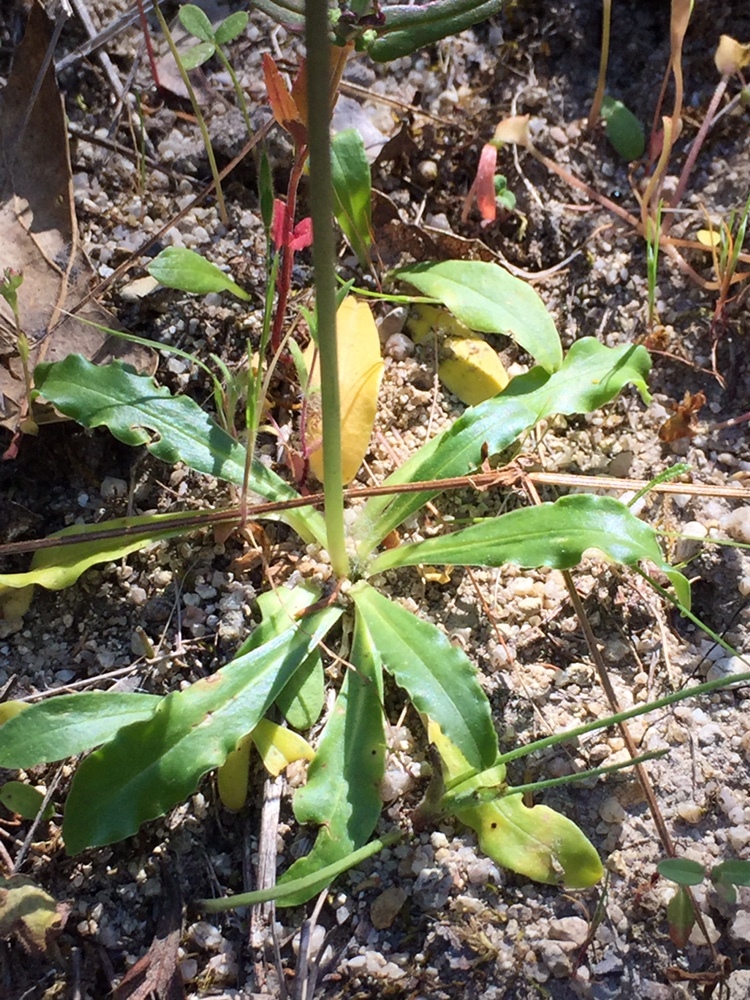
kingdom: Plantae
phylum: Tracheophyta
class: Magnoliopsida
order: Ericales
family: Primulaceae
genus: Dodecatheon
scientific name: Dodecatheon clevelandii
